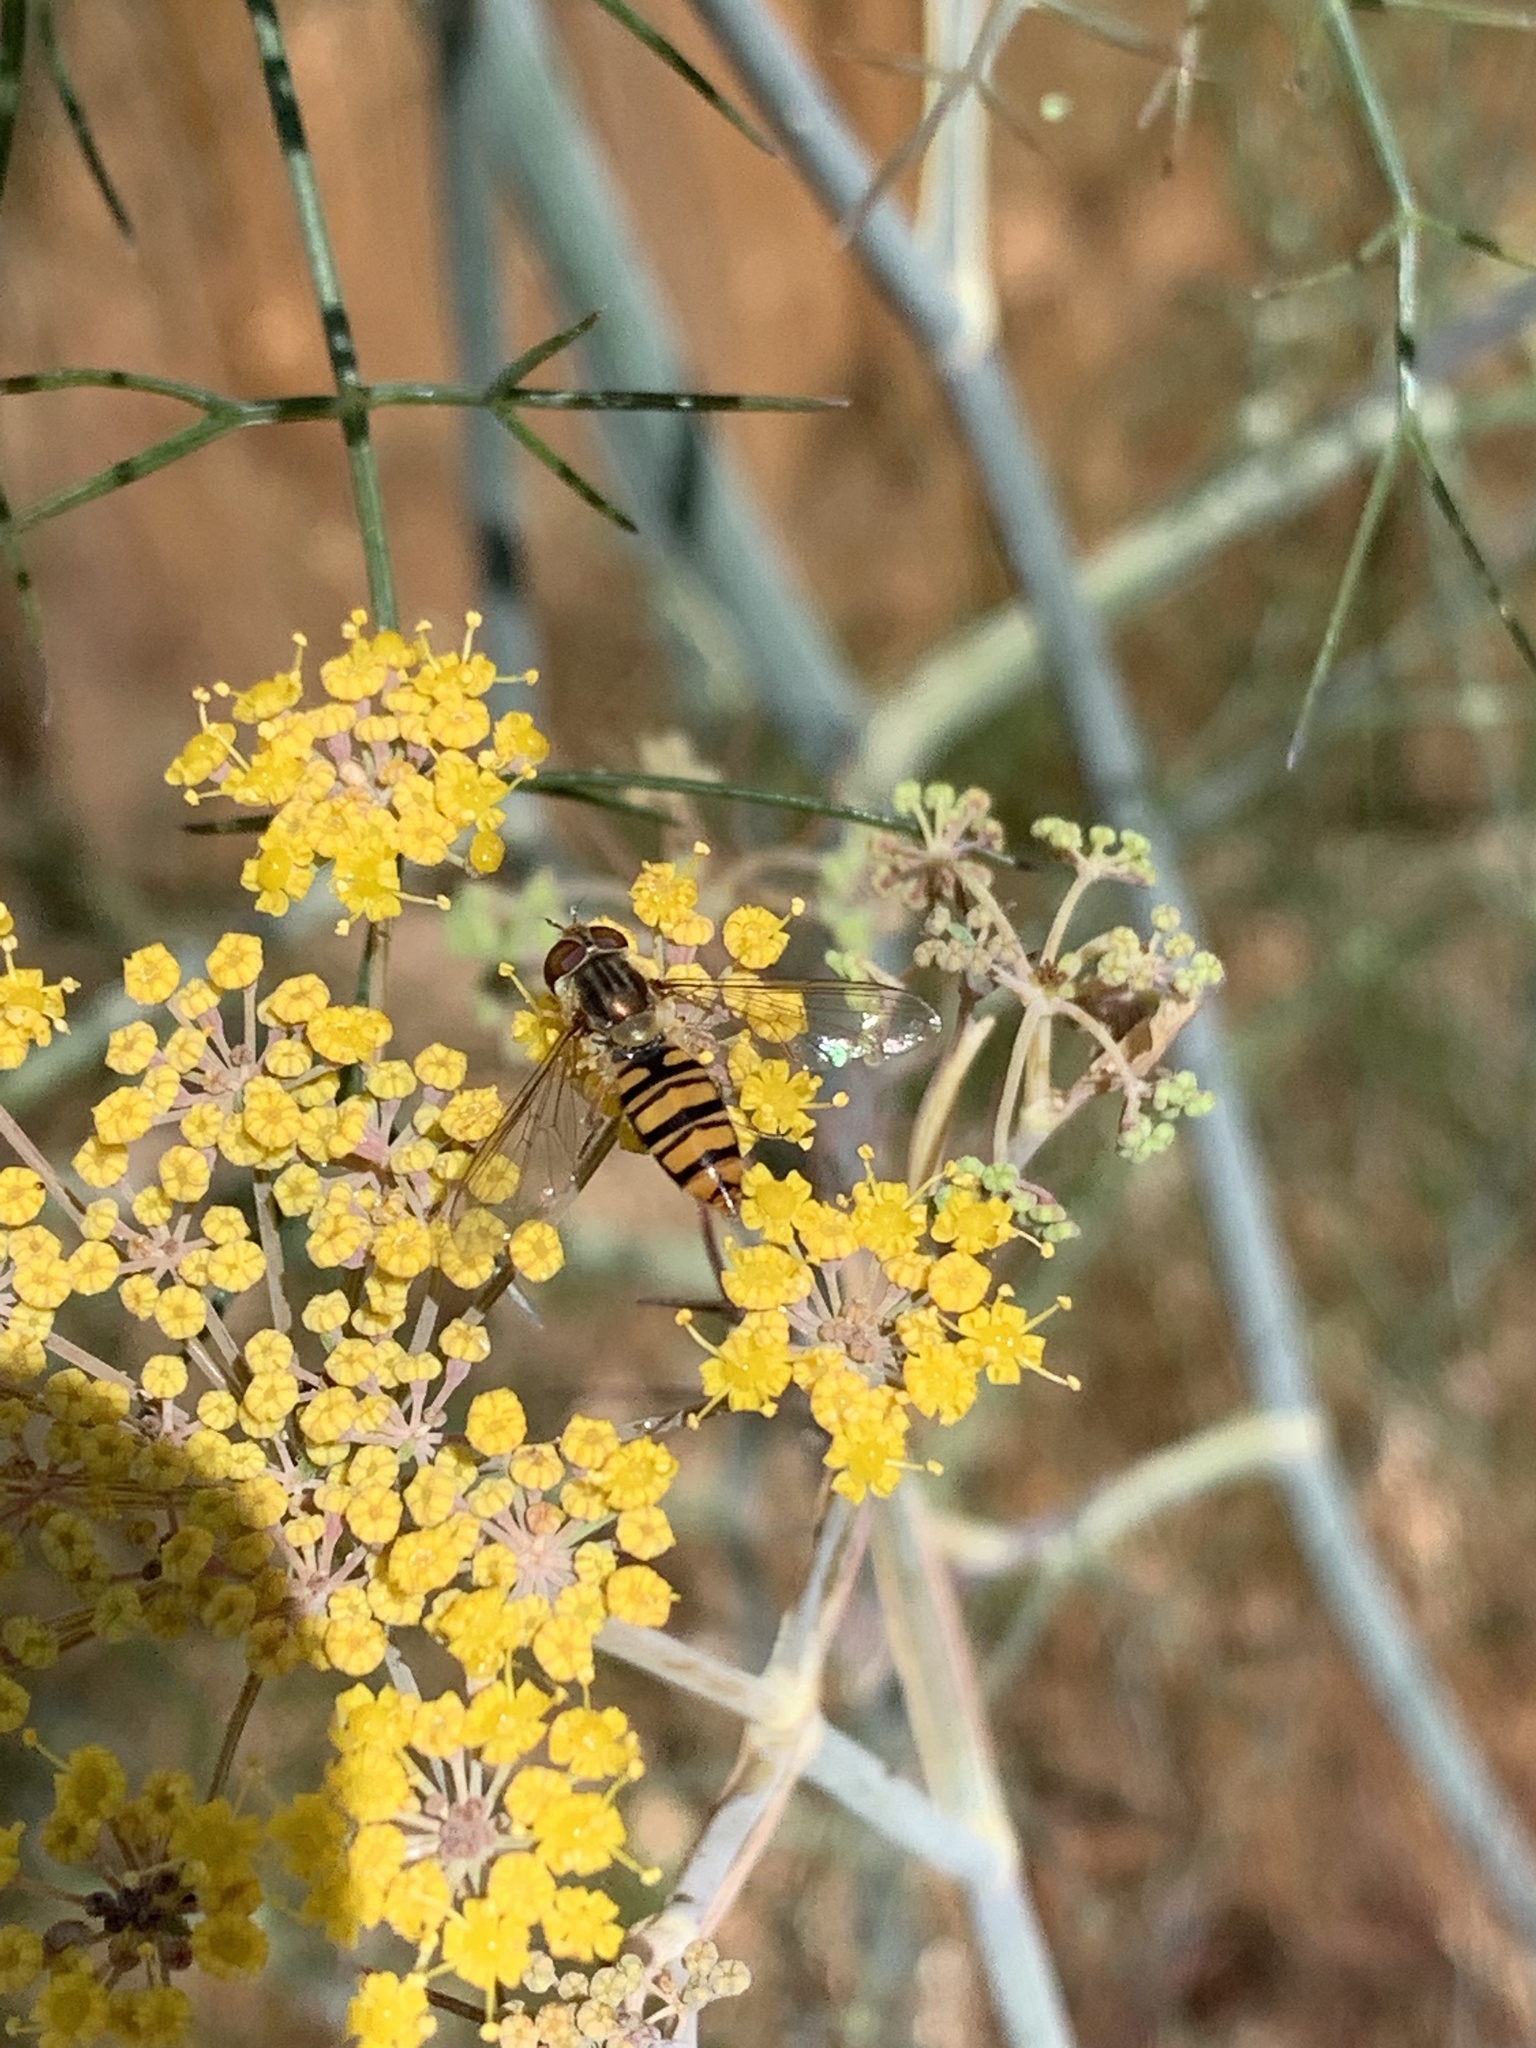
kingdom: Animalia
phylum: Arthropoda
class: Insecta
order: Diptera
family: Syrphidae
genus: Episyrphus
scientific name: Episyrphus balteatus
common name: Marmalade hoverfly
